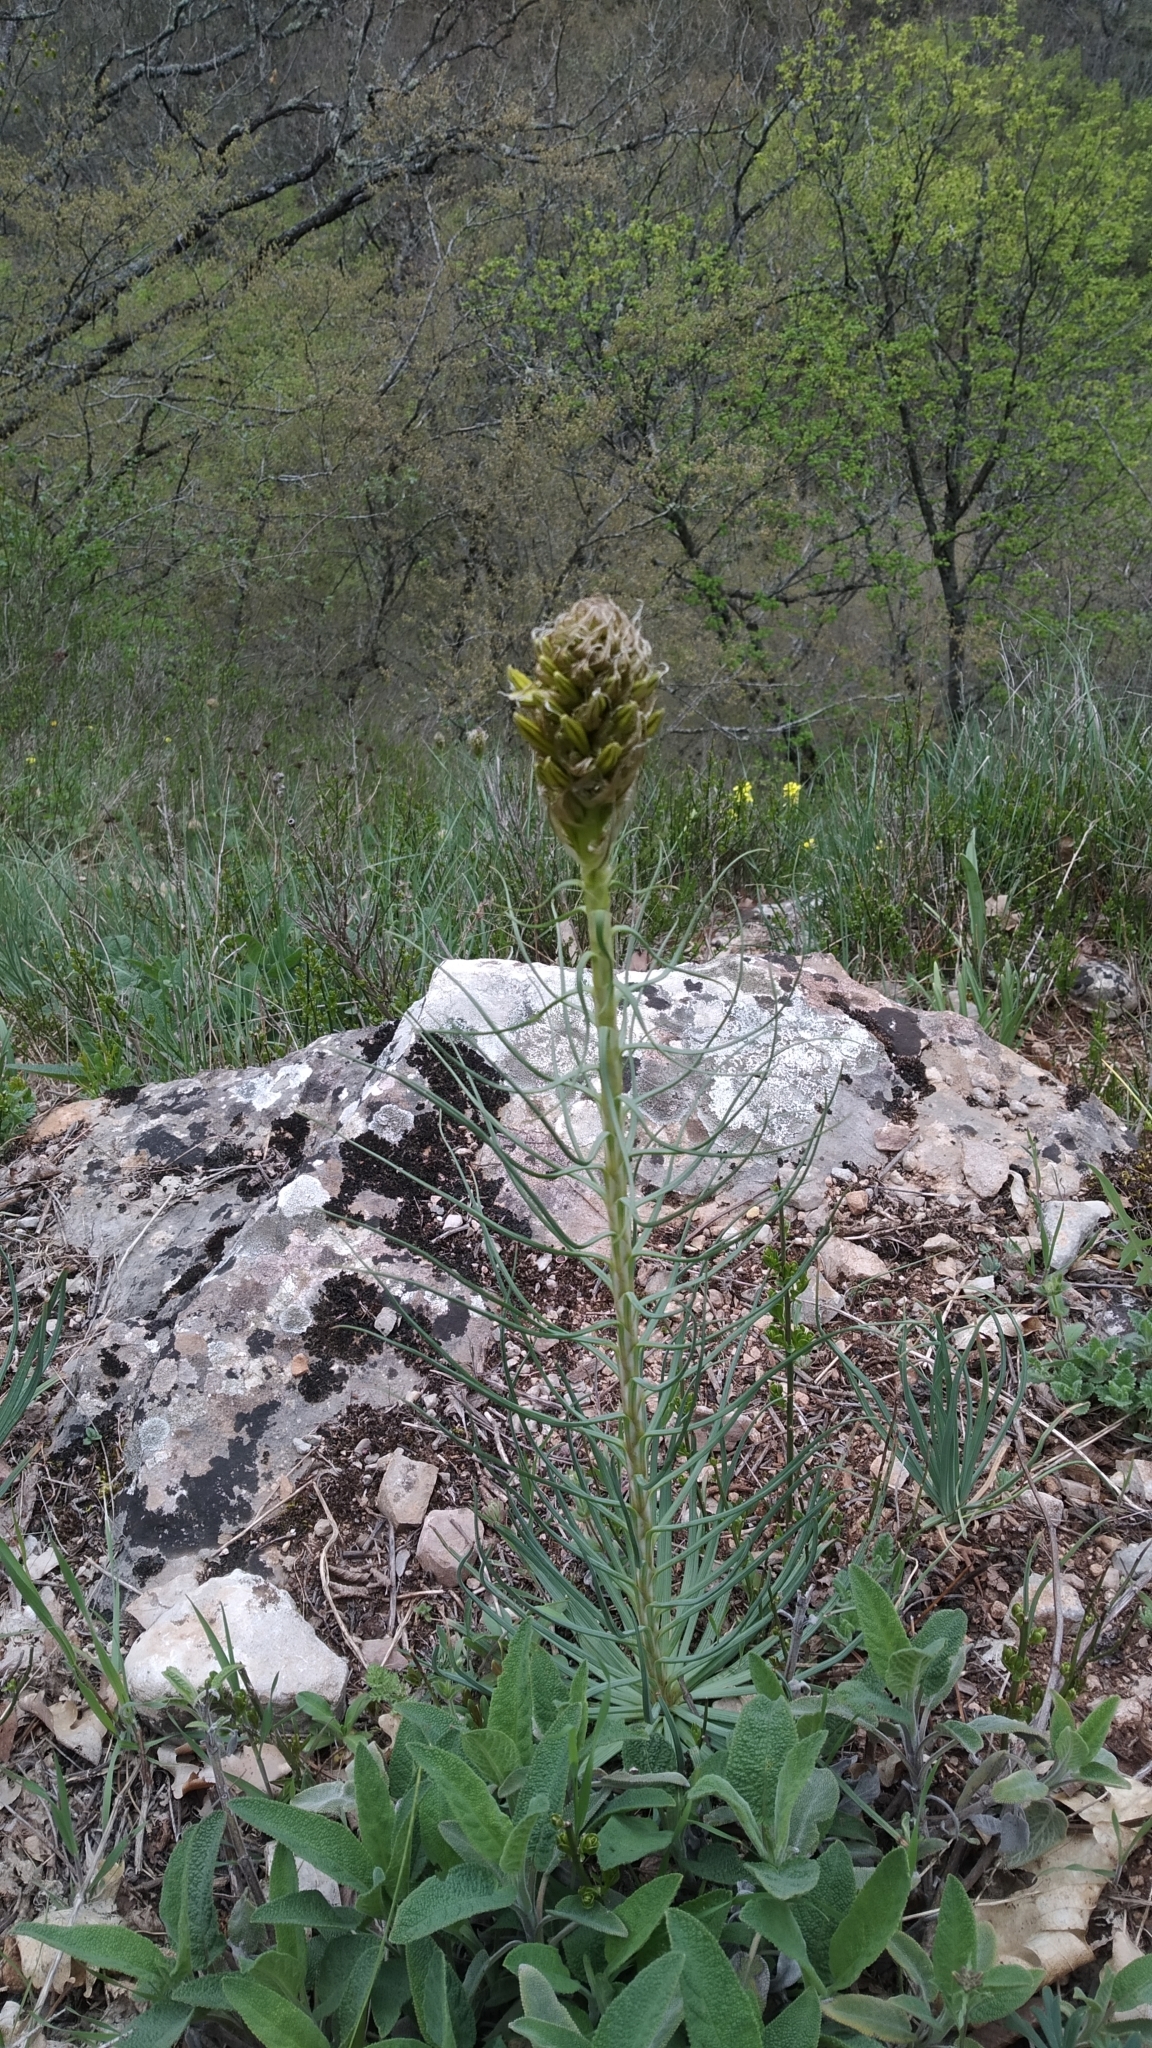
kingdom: Plantae
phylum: Tracheophyta
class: Liliopsida
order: Asparagales
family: Asphodelaceae
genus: Asphodeline
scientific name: Asphodeline lutea
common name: Yellow asphodel
